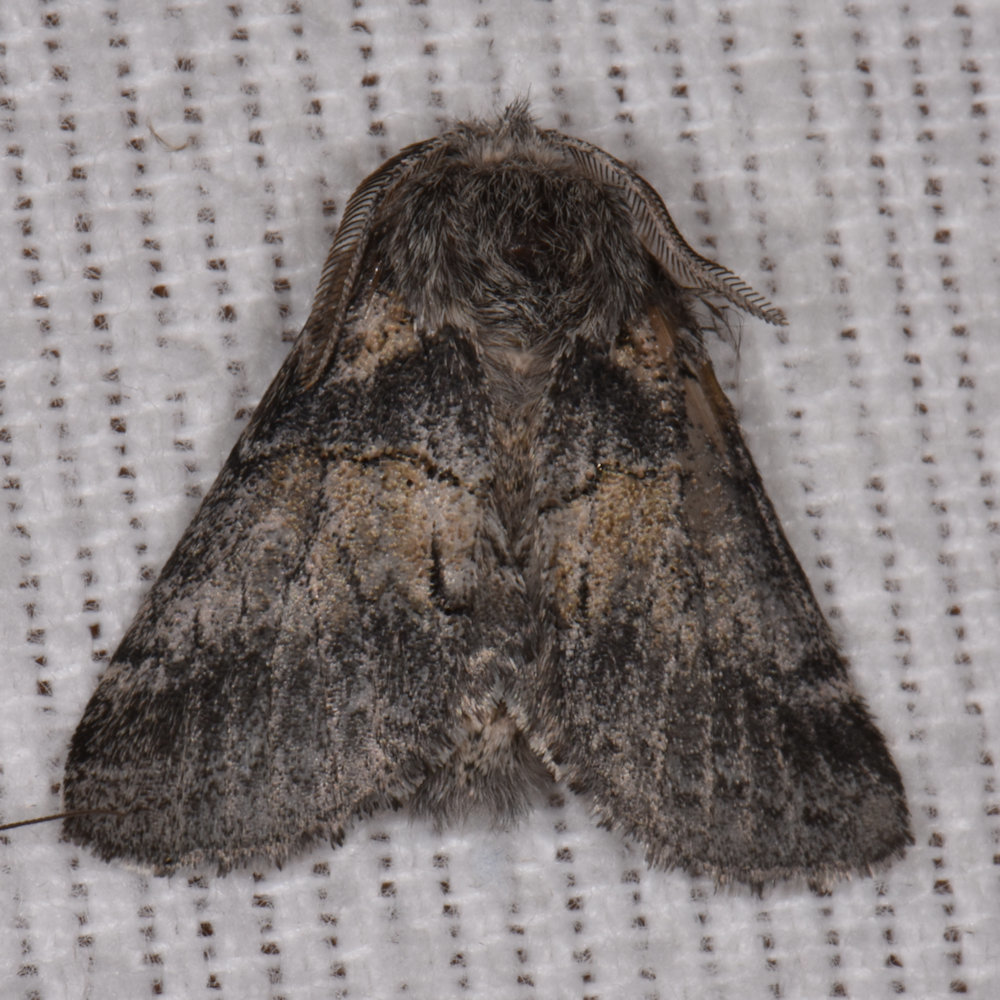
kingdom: Animalia
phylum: Arthropoda
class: Insecta
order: Lepidoptera
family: Notodontidae
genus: Gluphisia
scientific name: Gluphisia septentrionis
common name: Common gluphisia
